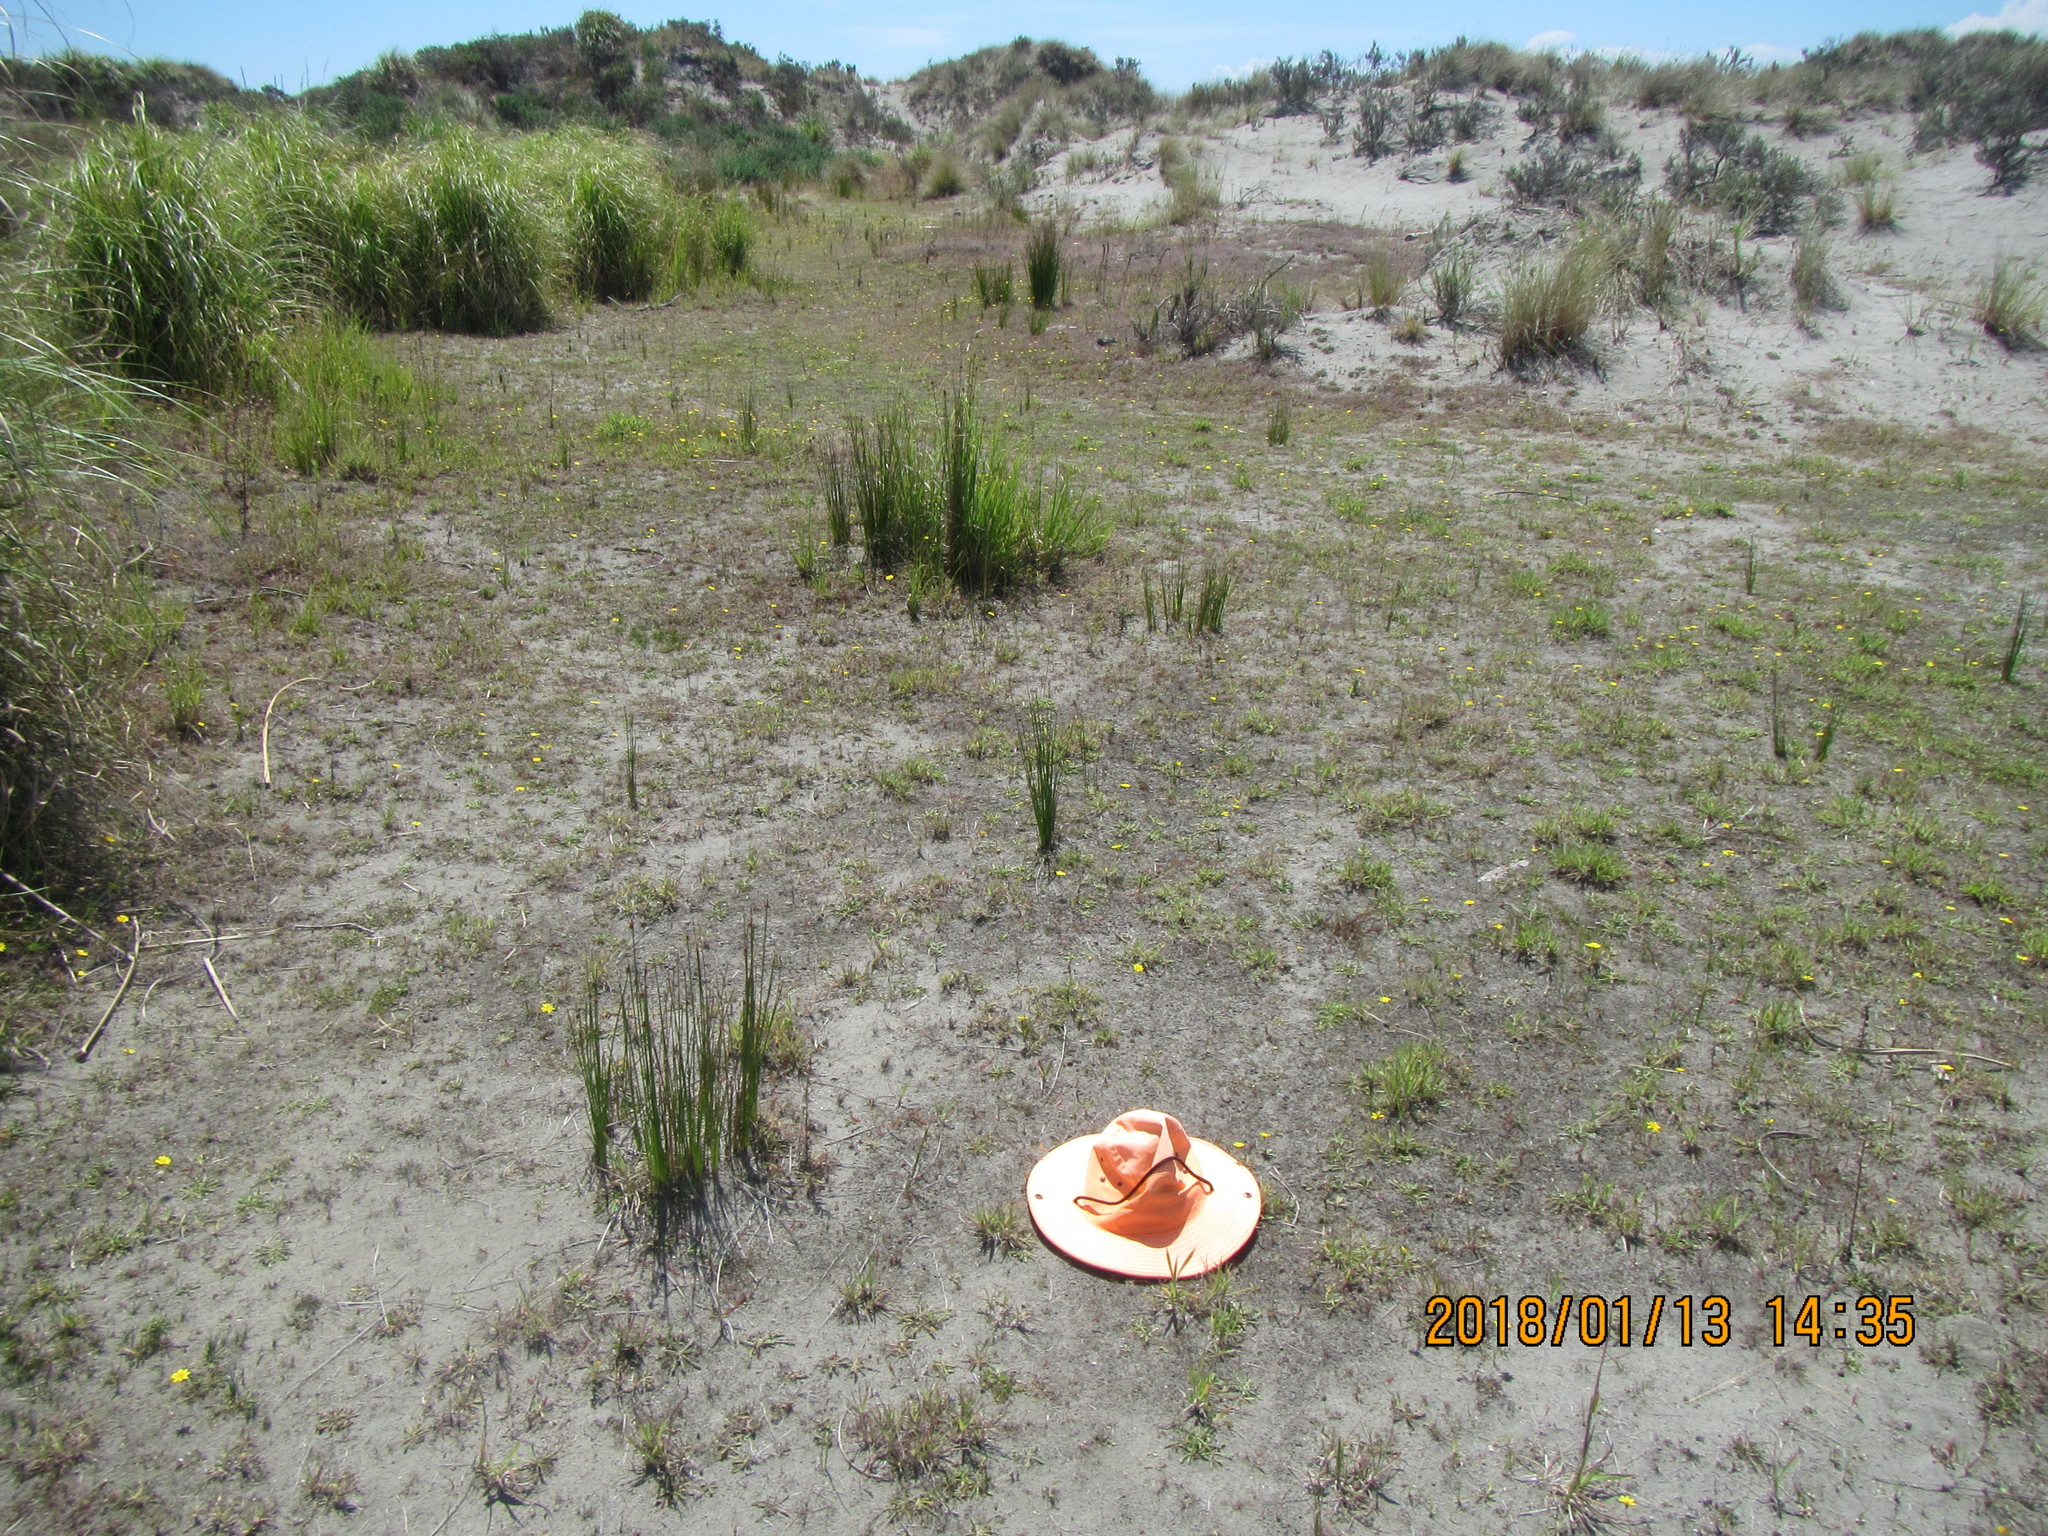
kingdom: Plantae
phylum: Tracheophyta
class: Magnoliopsida
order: Gentianales
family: Gentianaceae
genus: Centaurium
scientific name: Centaurium erythraea
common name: Common centaury
